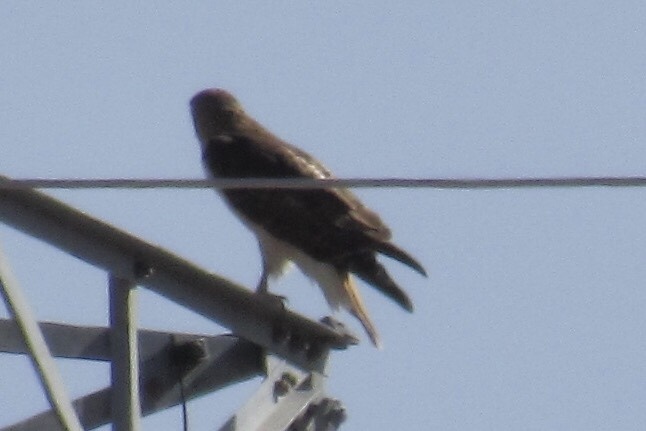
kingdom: Animalia
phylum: Chordata
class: Aves
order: Accipitriformes
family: Accipitridae
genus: Buteo
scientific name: Buteo jamaicensis
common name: Red-tailed hawk
